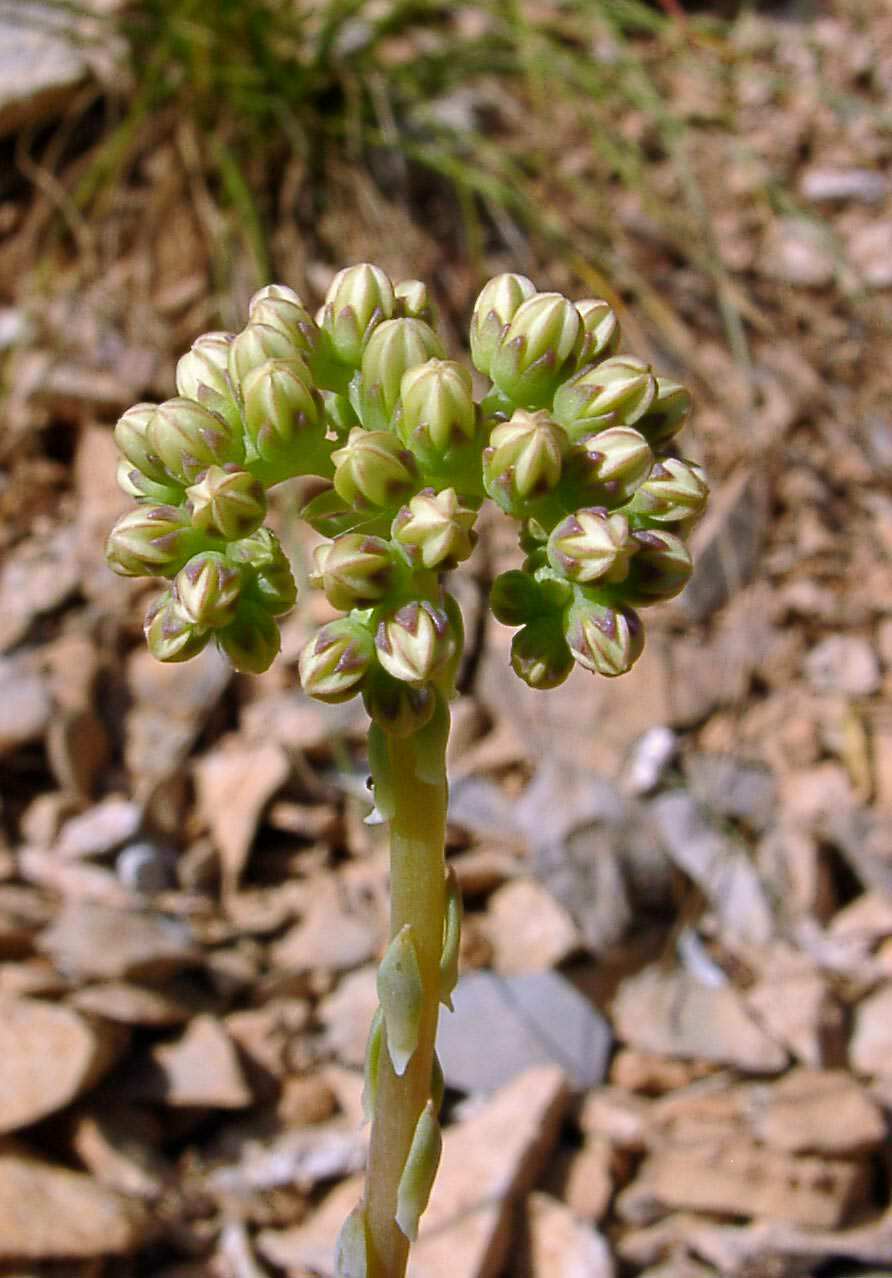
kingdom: Plantae
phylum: Tracheophyta
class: Magnoliopsida
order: Saxifragales
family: Crassulaceae
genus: Petrosedum
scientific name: Petrosedum sediforme
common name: Pale stonecrop
